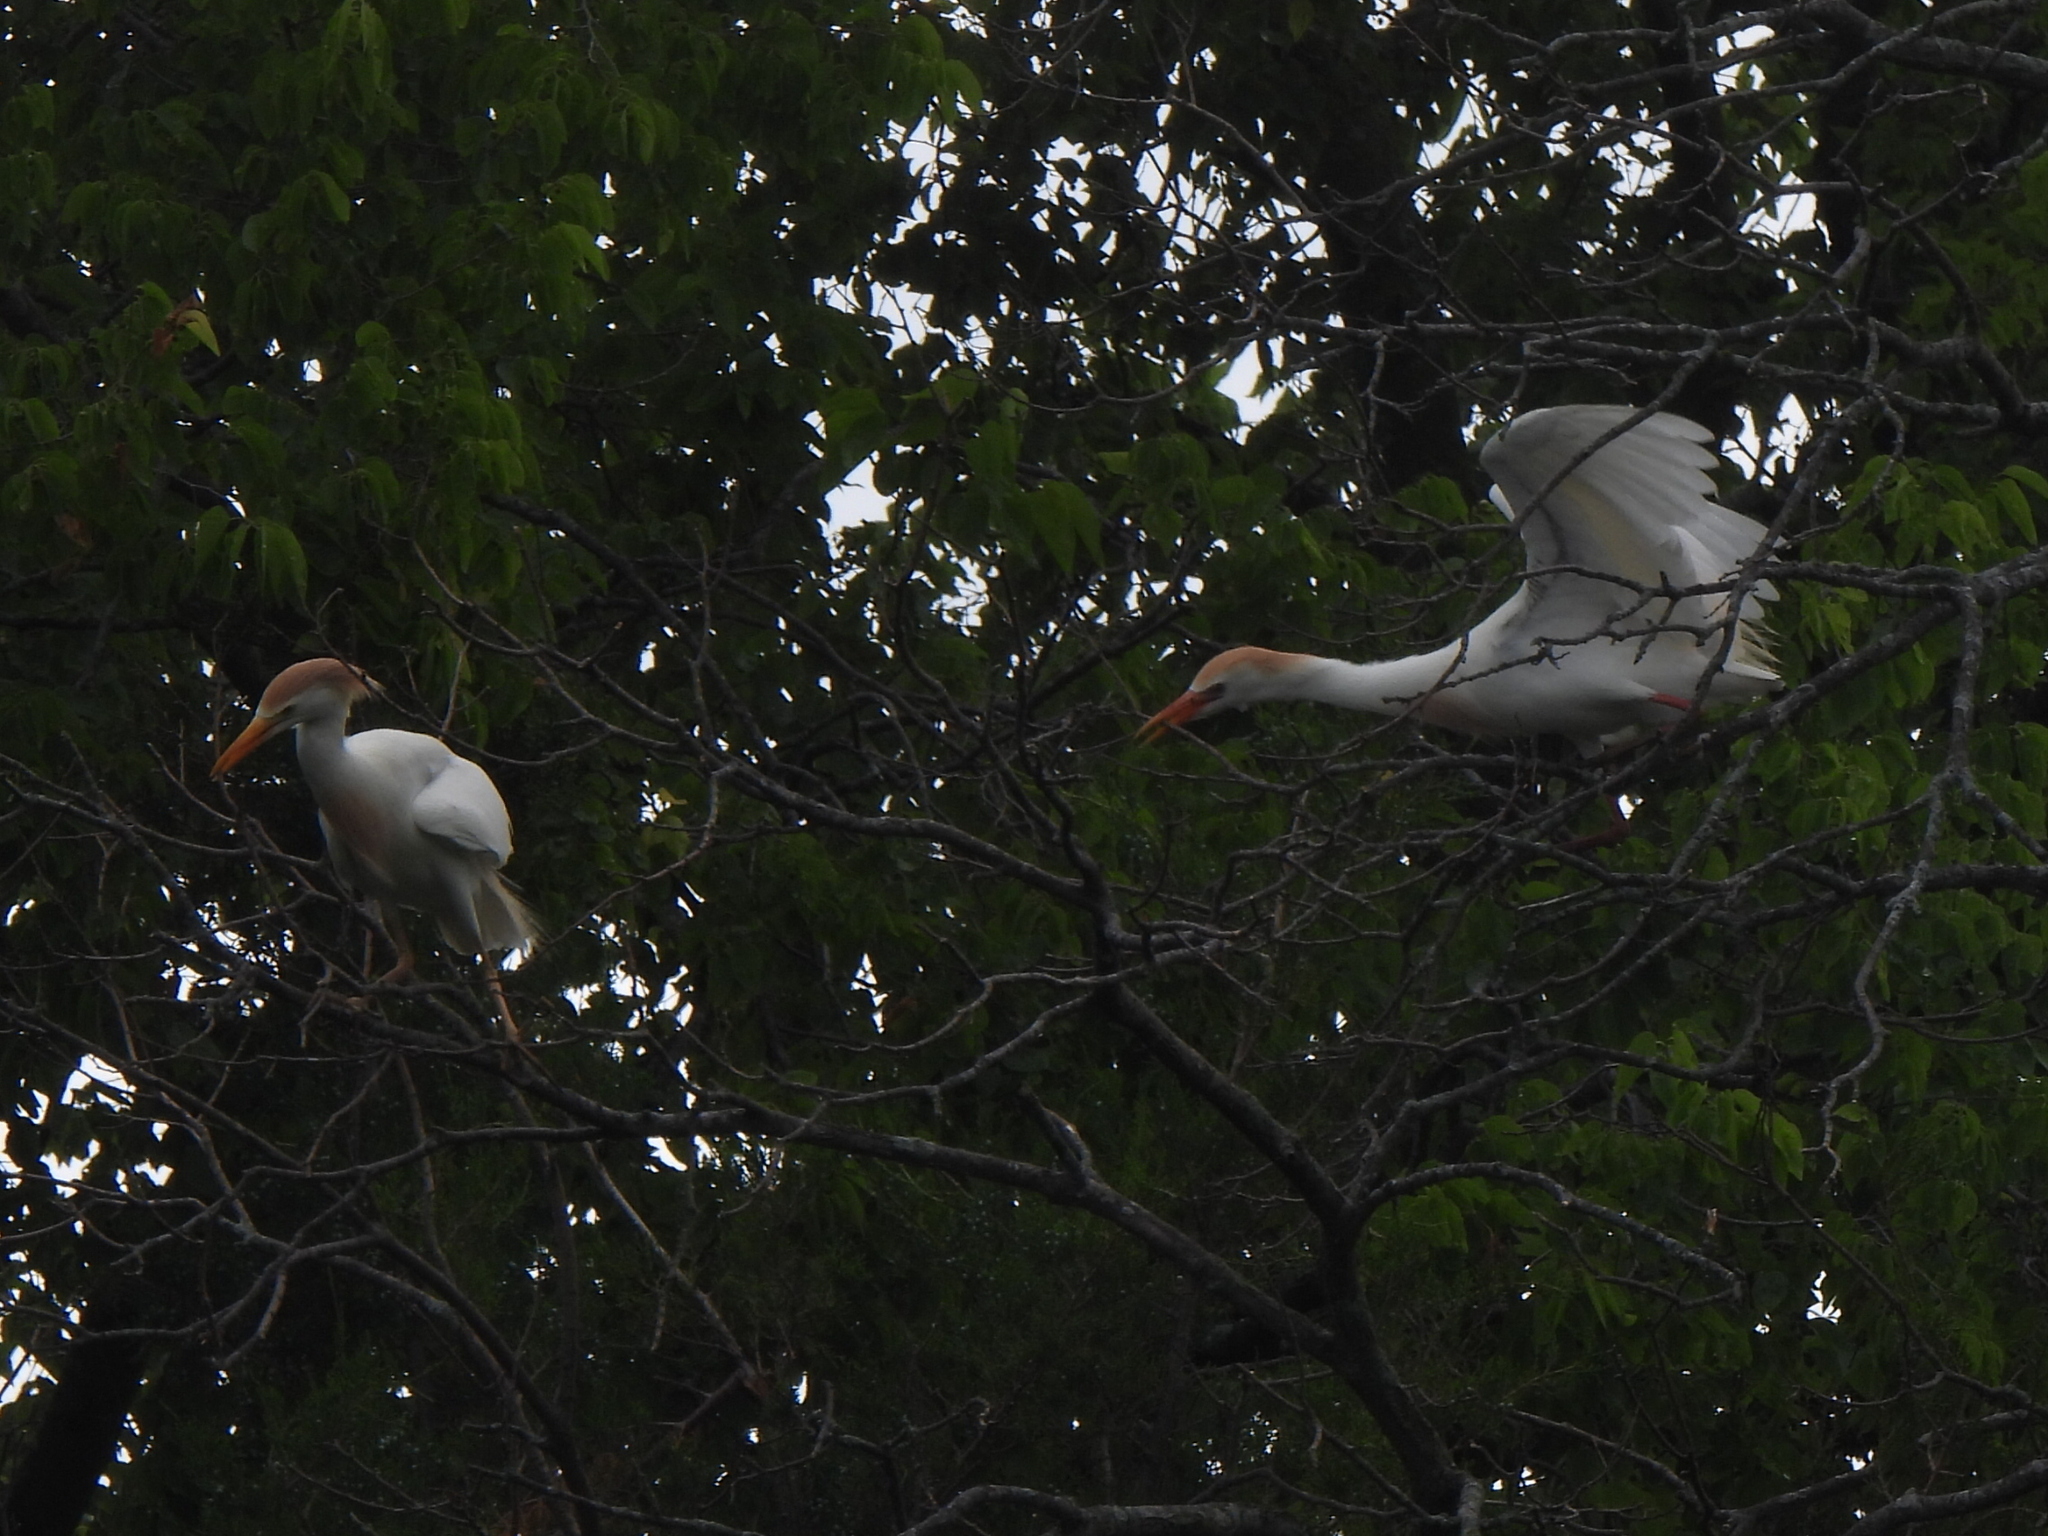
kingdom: Animalia
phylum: Chordata
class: Aves
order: Pelecaniformes
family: Ardeidae
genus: Bubulcus
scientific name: Bubulcus ibis
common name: Cattle egret
